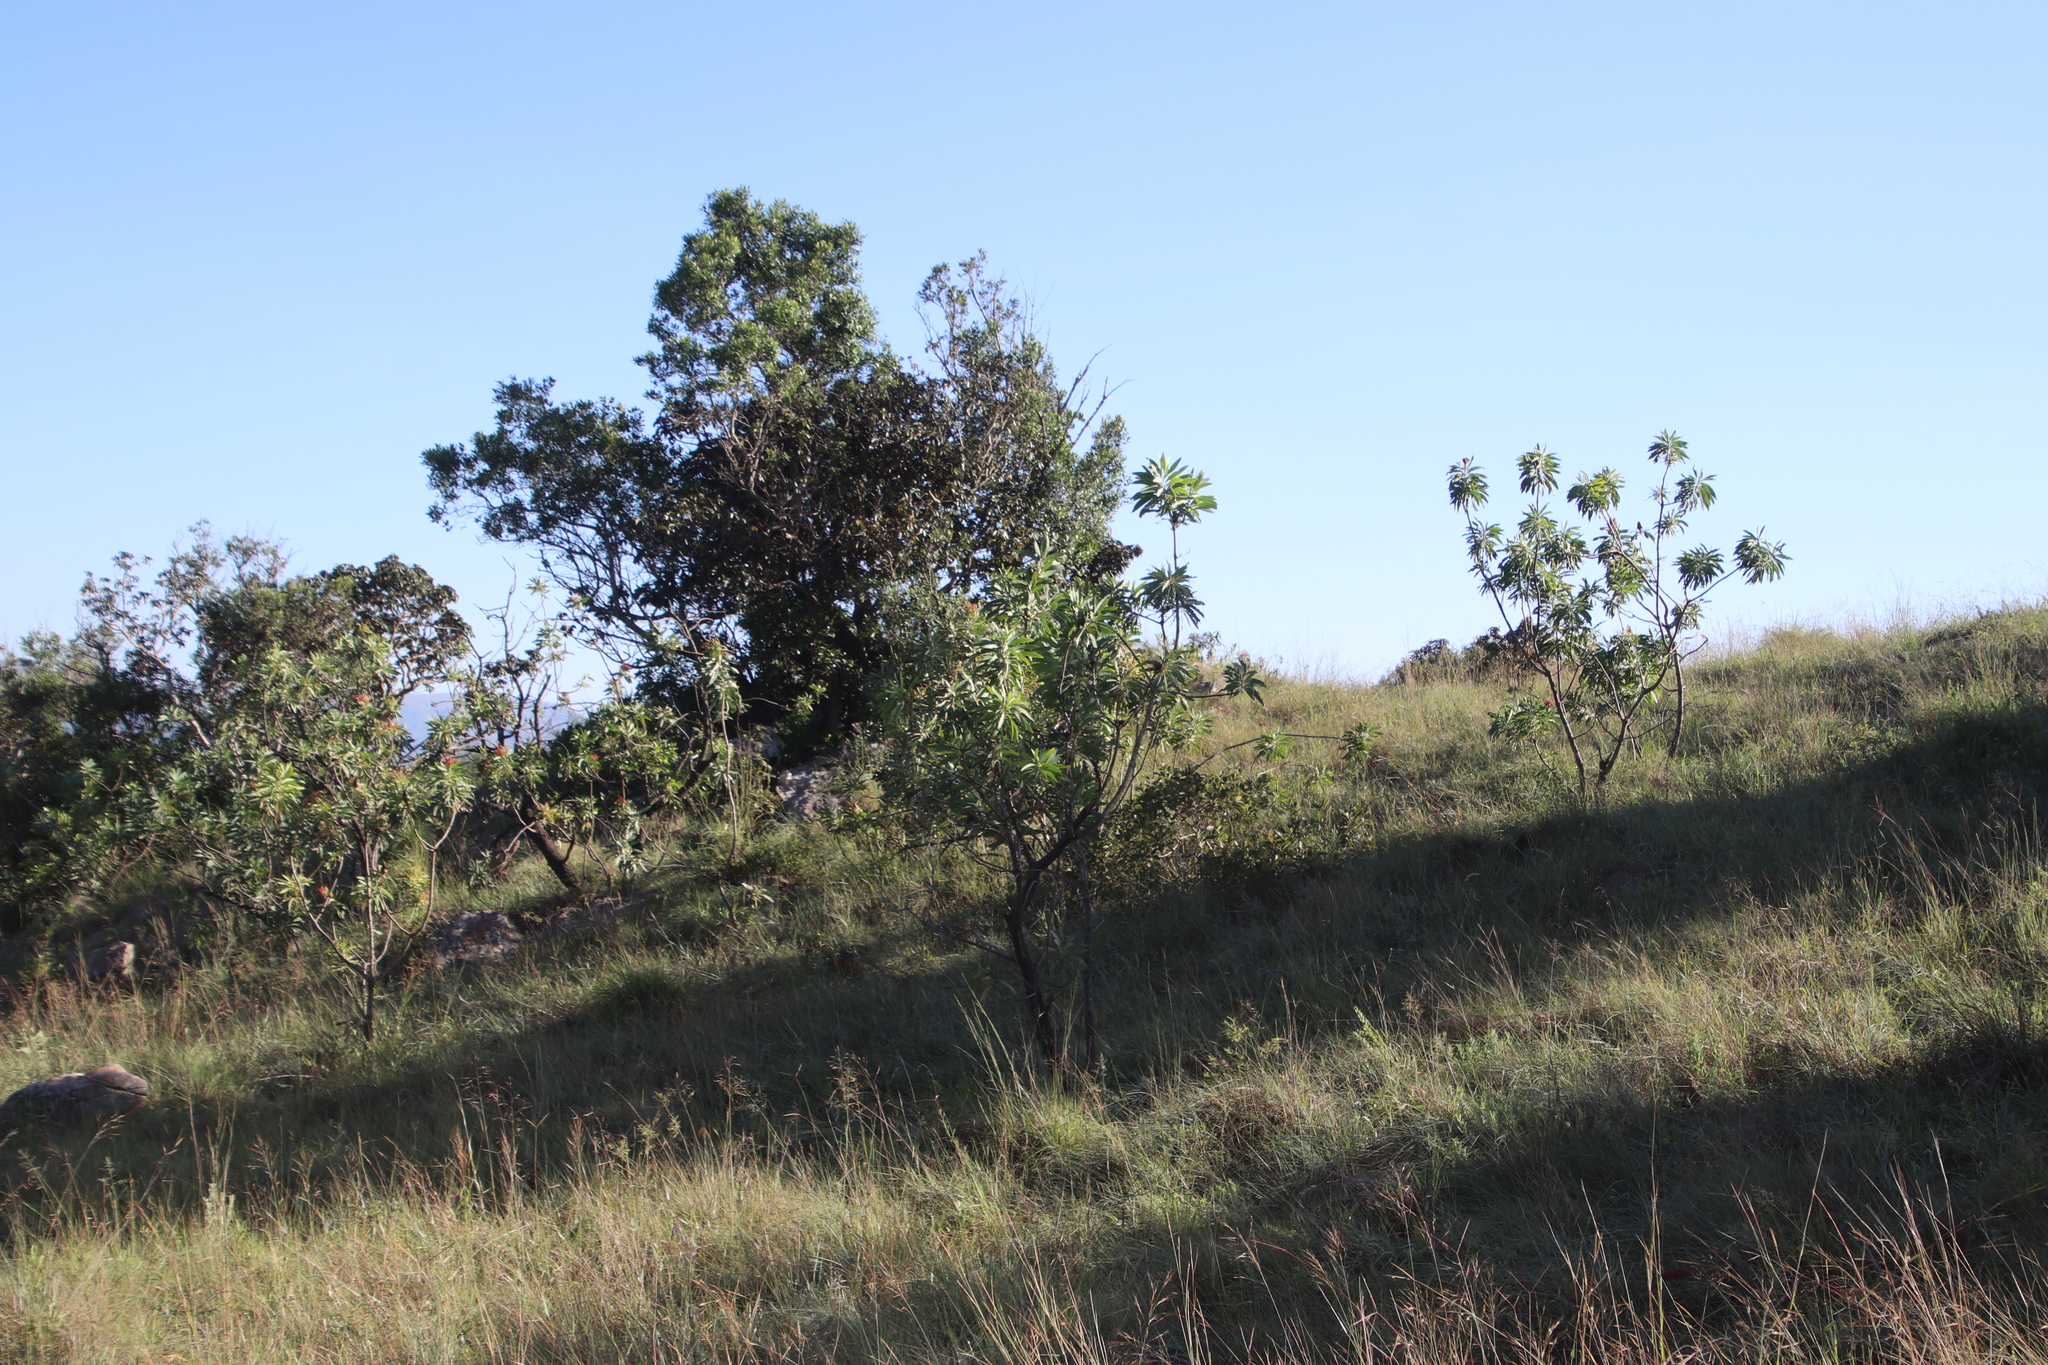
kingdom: Plantae
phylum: Tracheophyta
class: Magnoliopsida
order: Proteales
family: Proteaceae
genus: Protea
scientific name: Protea caffra
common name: Common sugarbush
